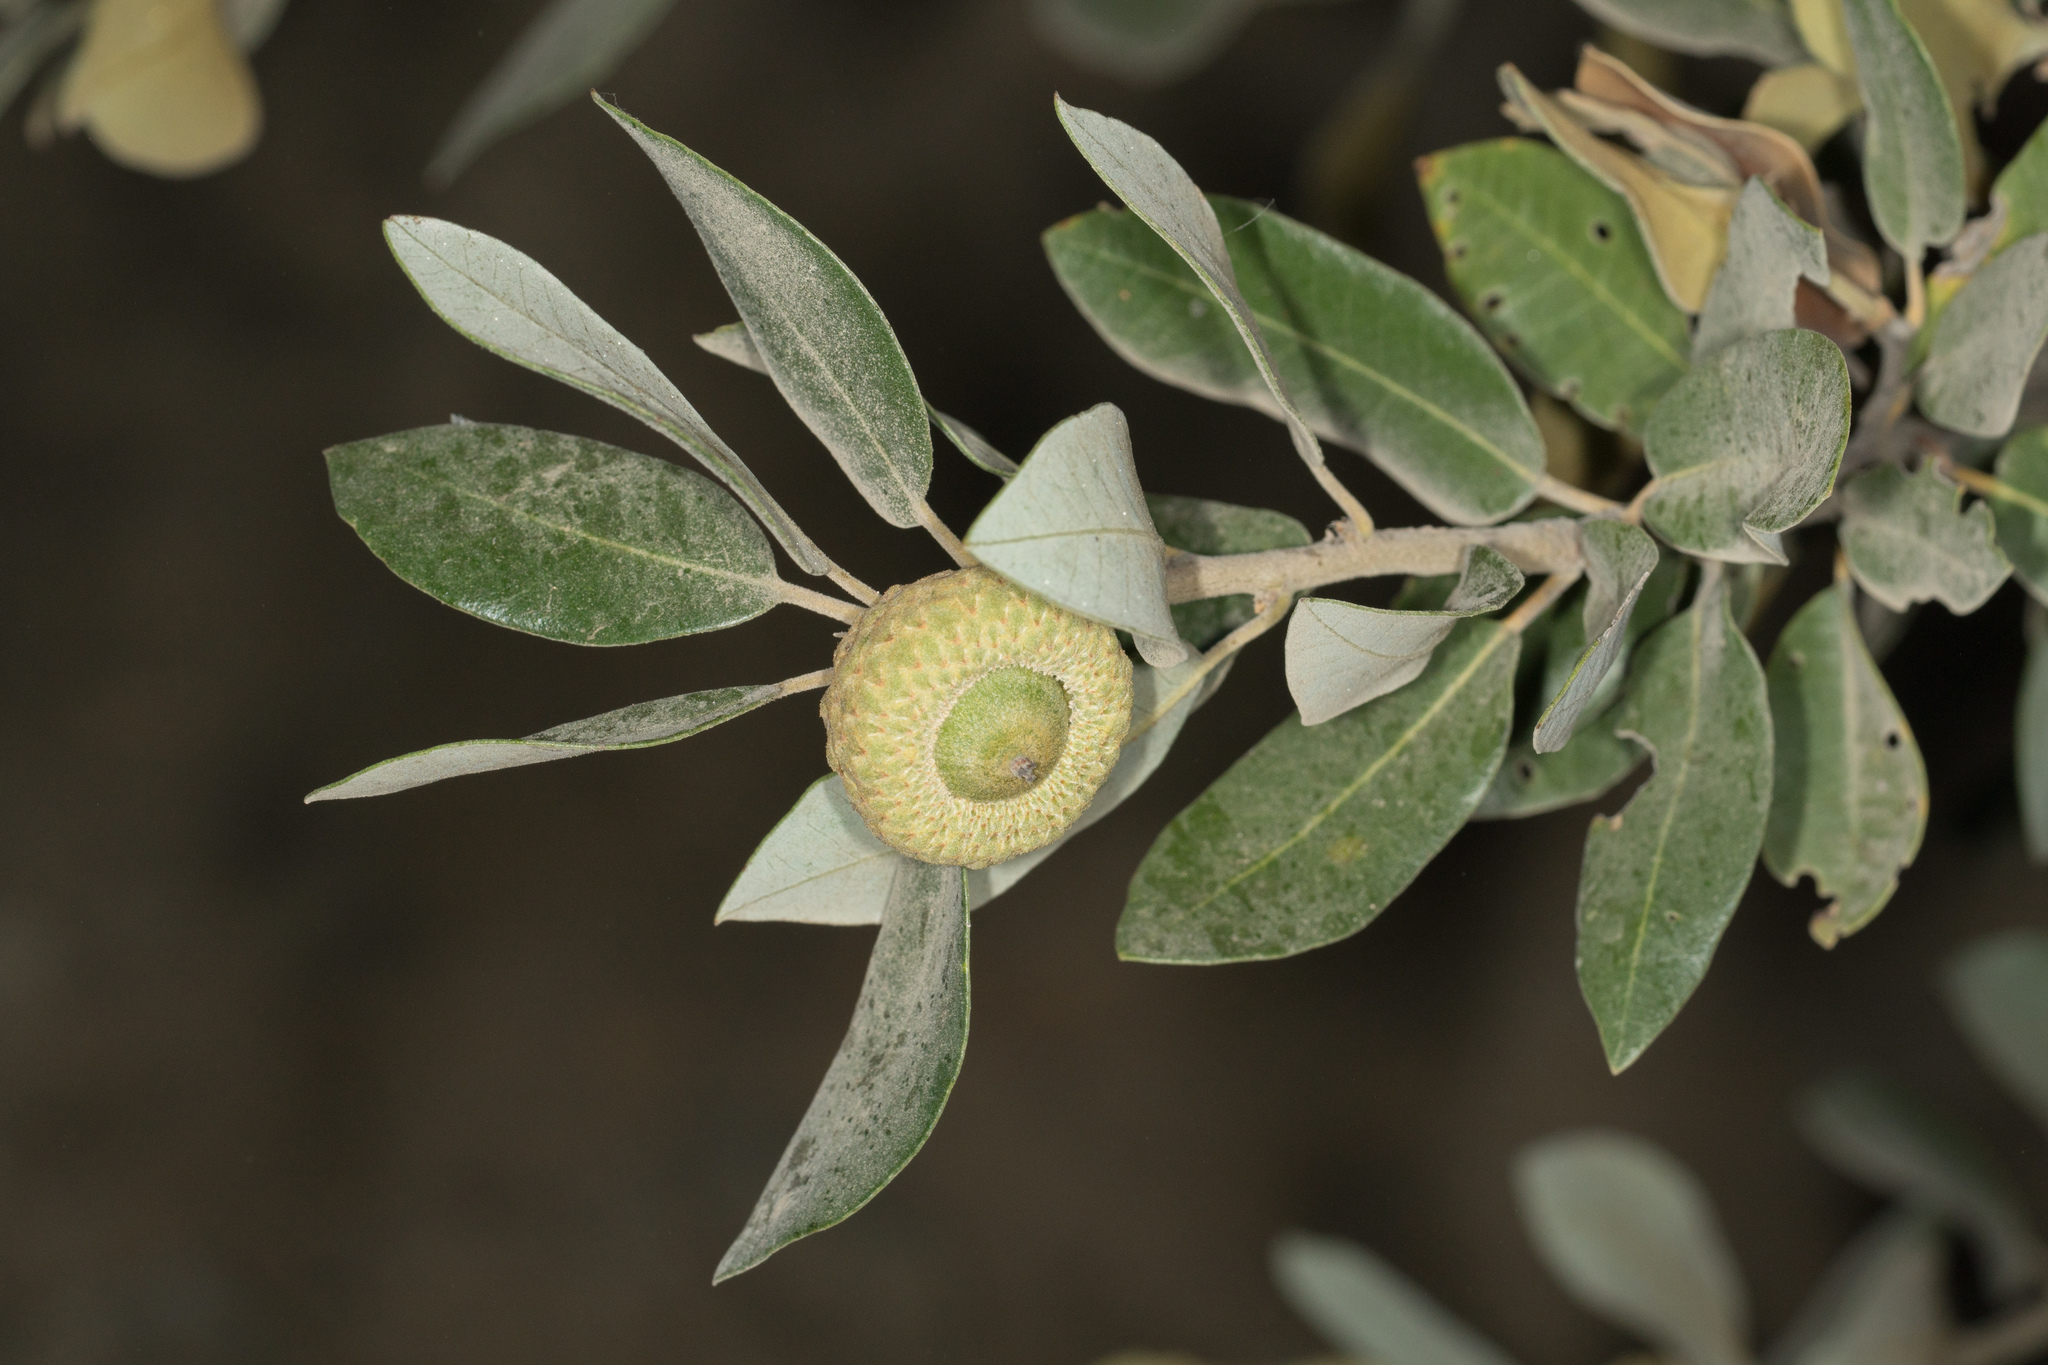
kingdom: Plantae
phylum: Tracheophyta
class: Magnoliopsida
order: Fagales
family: Fagaceae
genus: Quercus
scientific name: Quercus chrysolepis
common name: Canyon live oak
